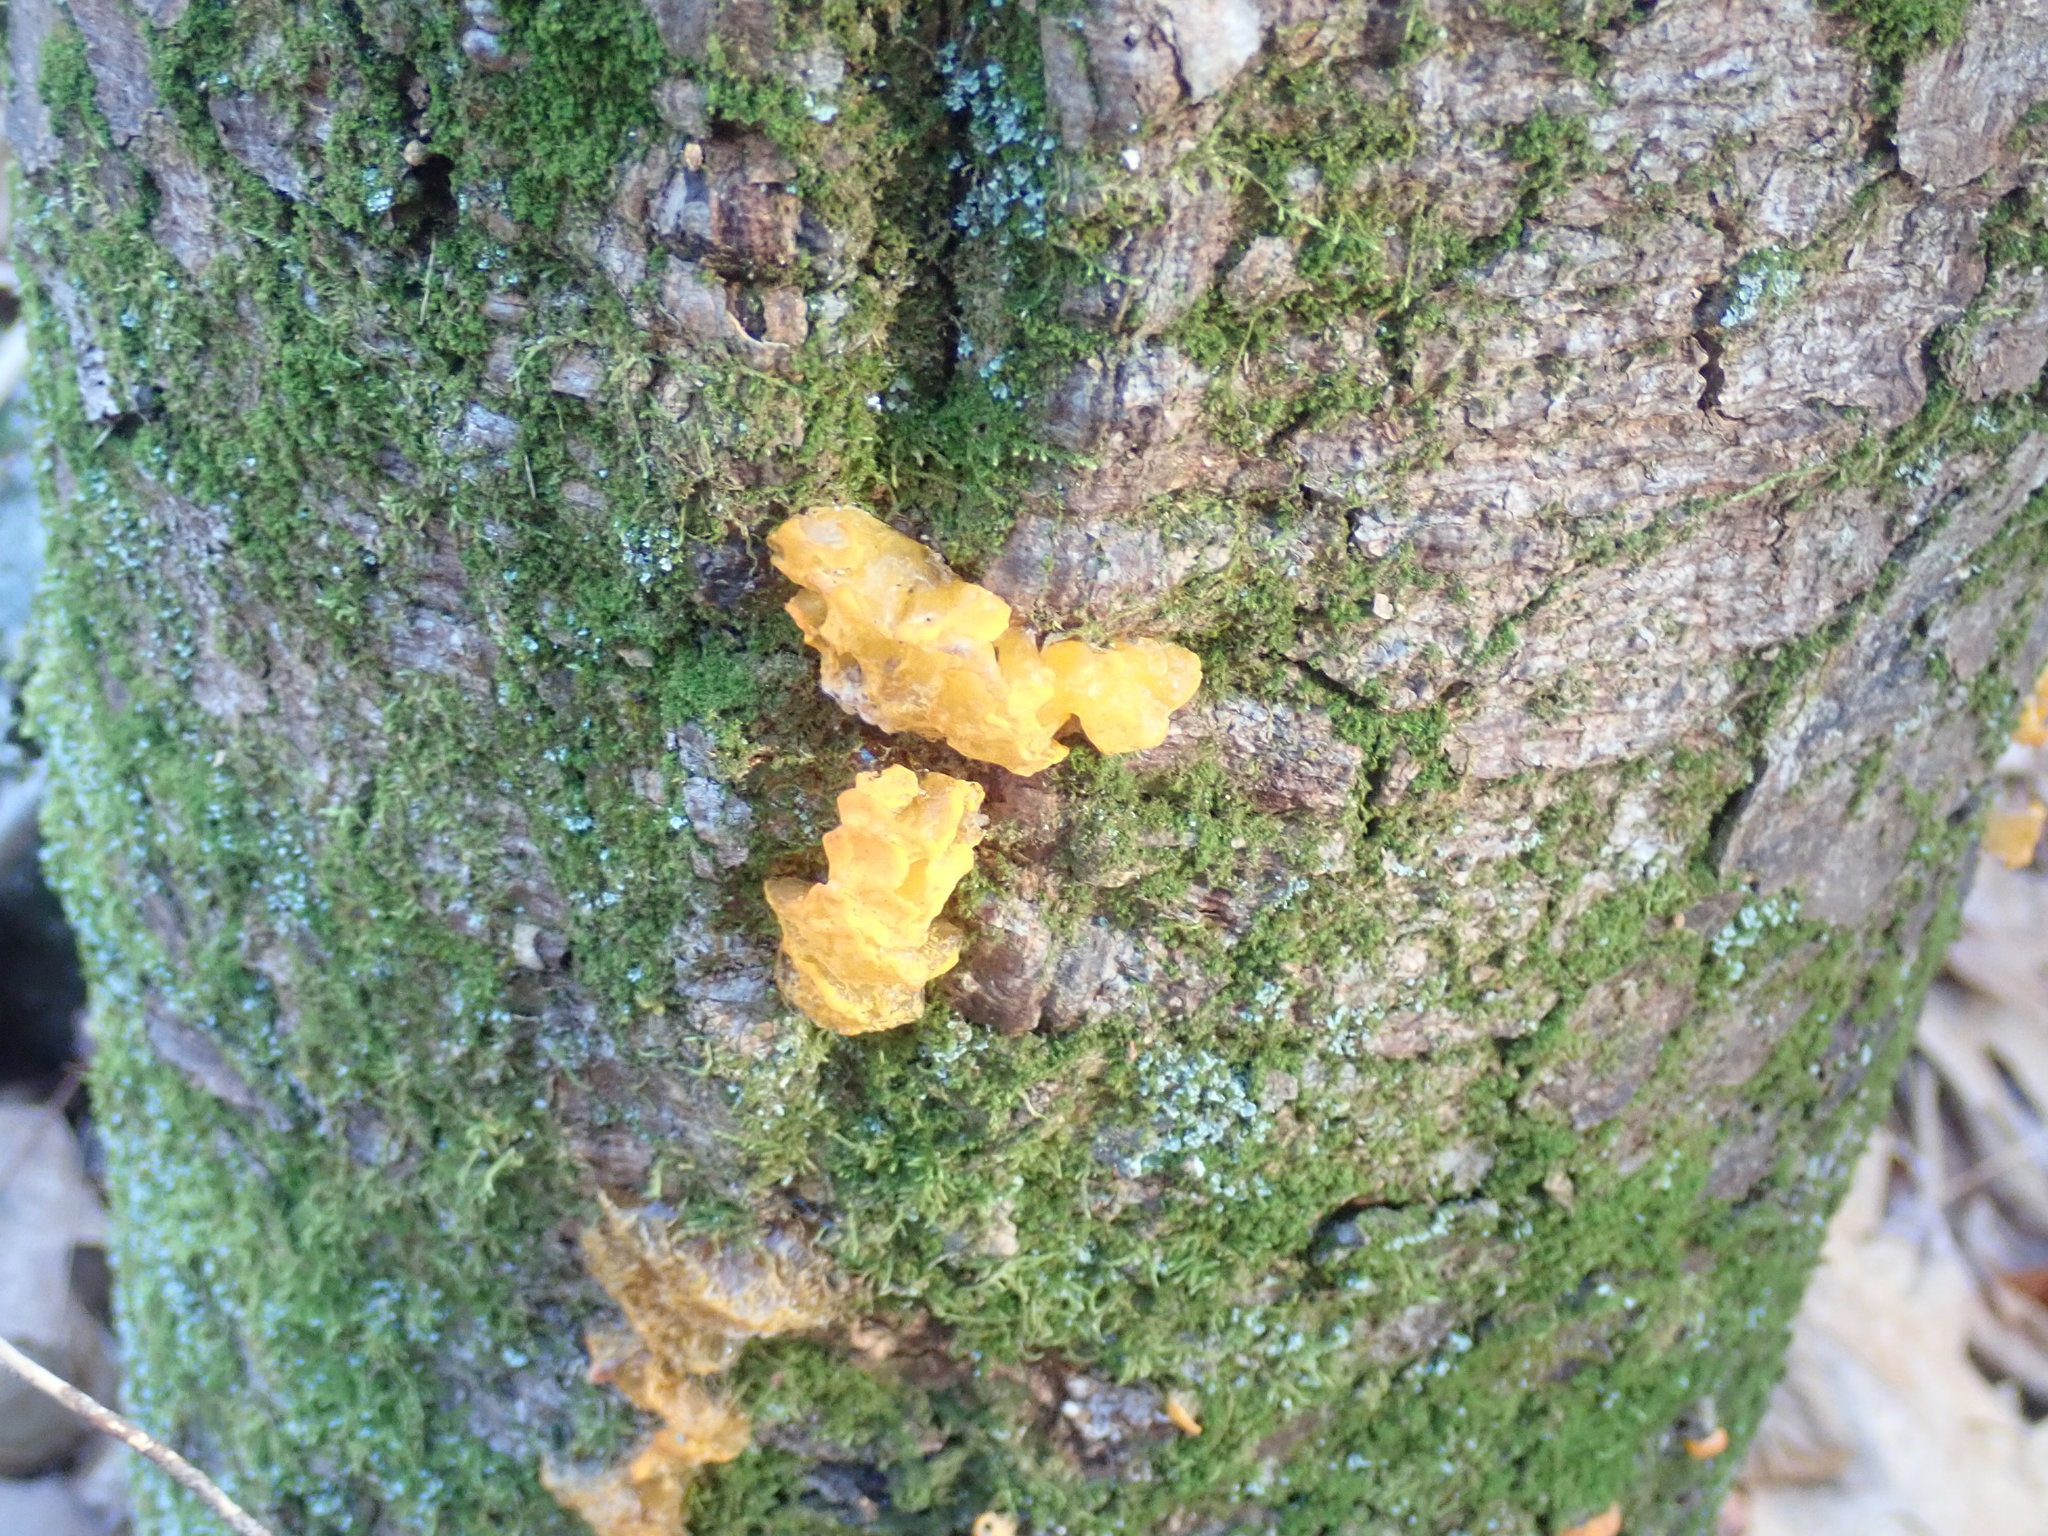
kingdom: Fungi
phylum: Basidiomycota
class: Tremellomycetes
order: Tremellales
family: Tremellaceae
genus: Tremella
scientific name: Tremella mesenterica
